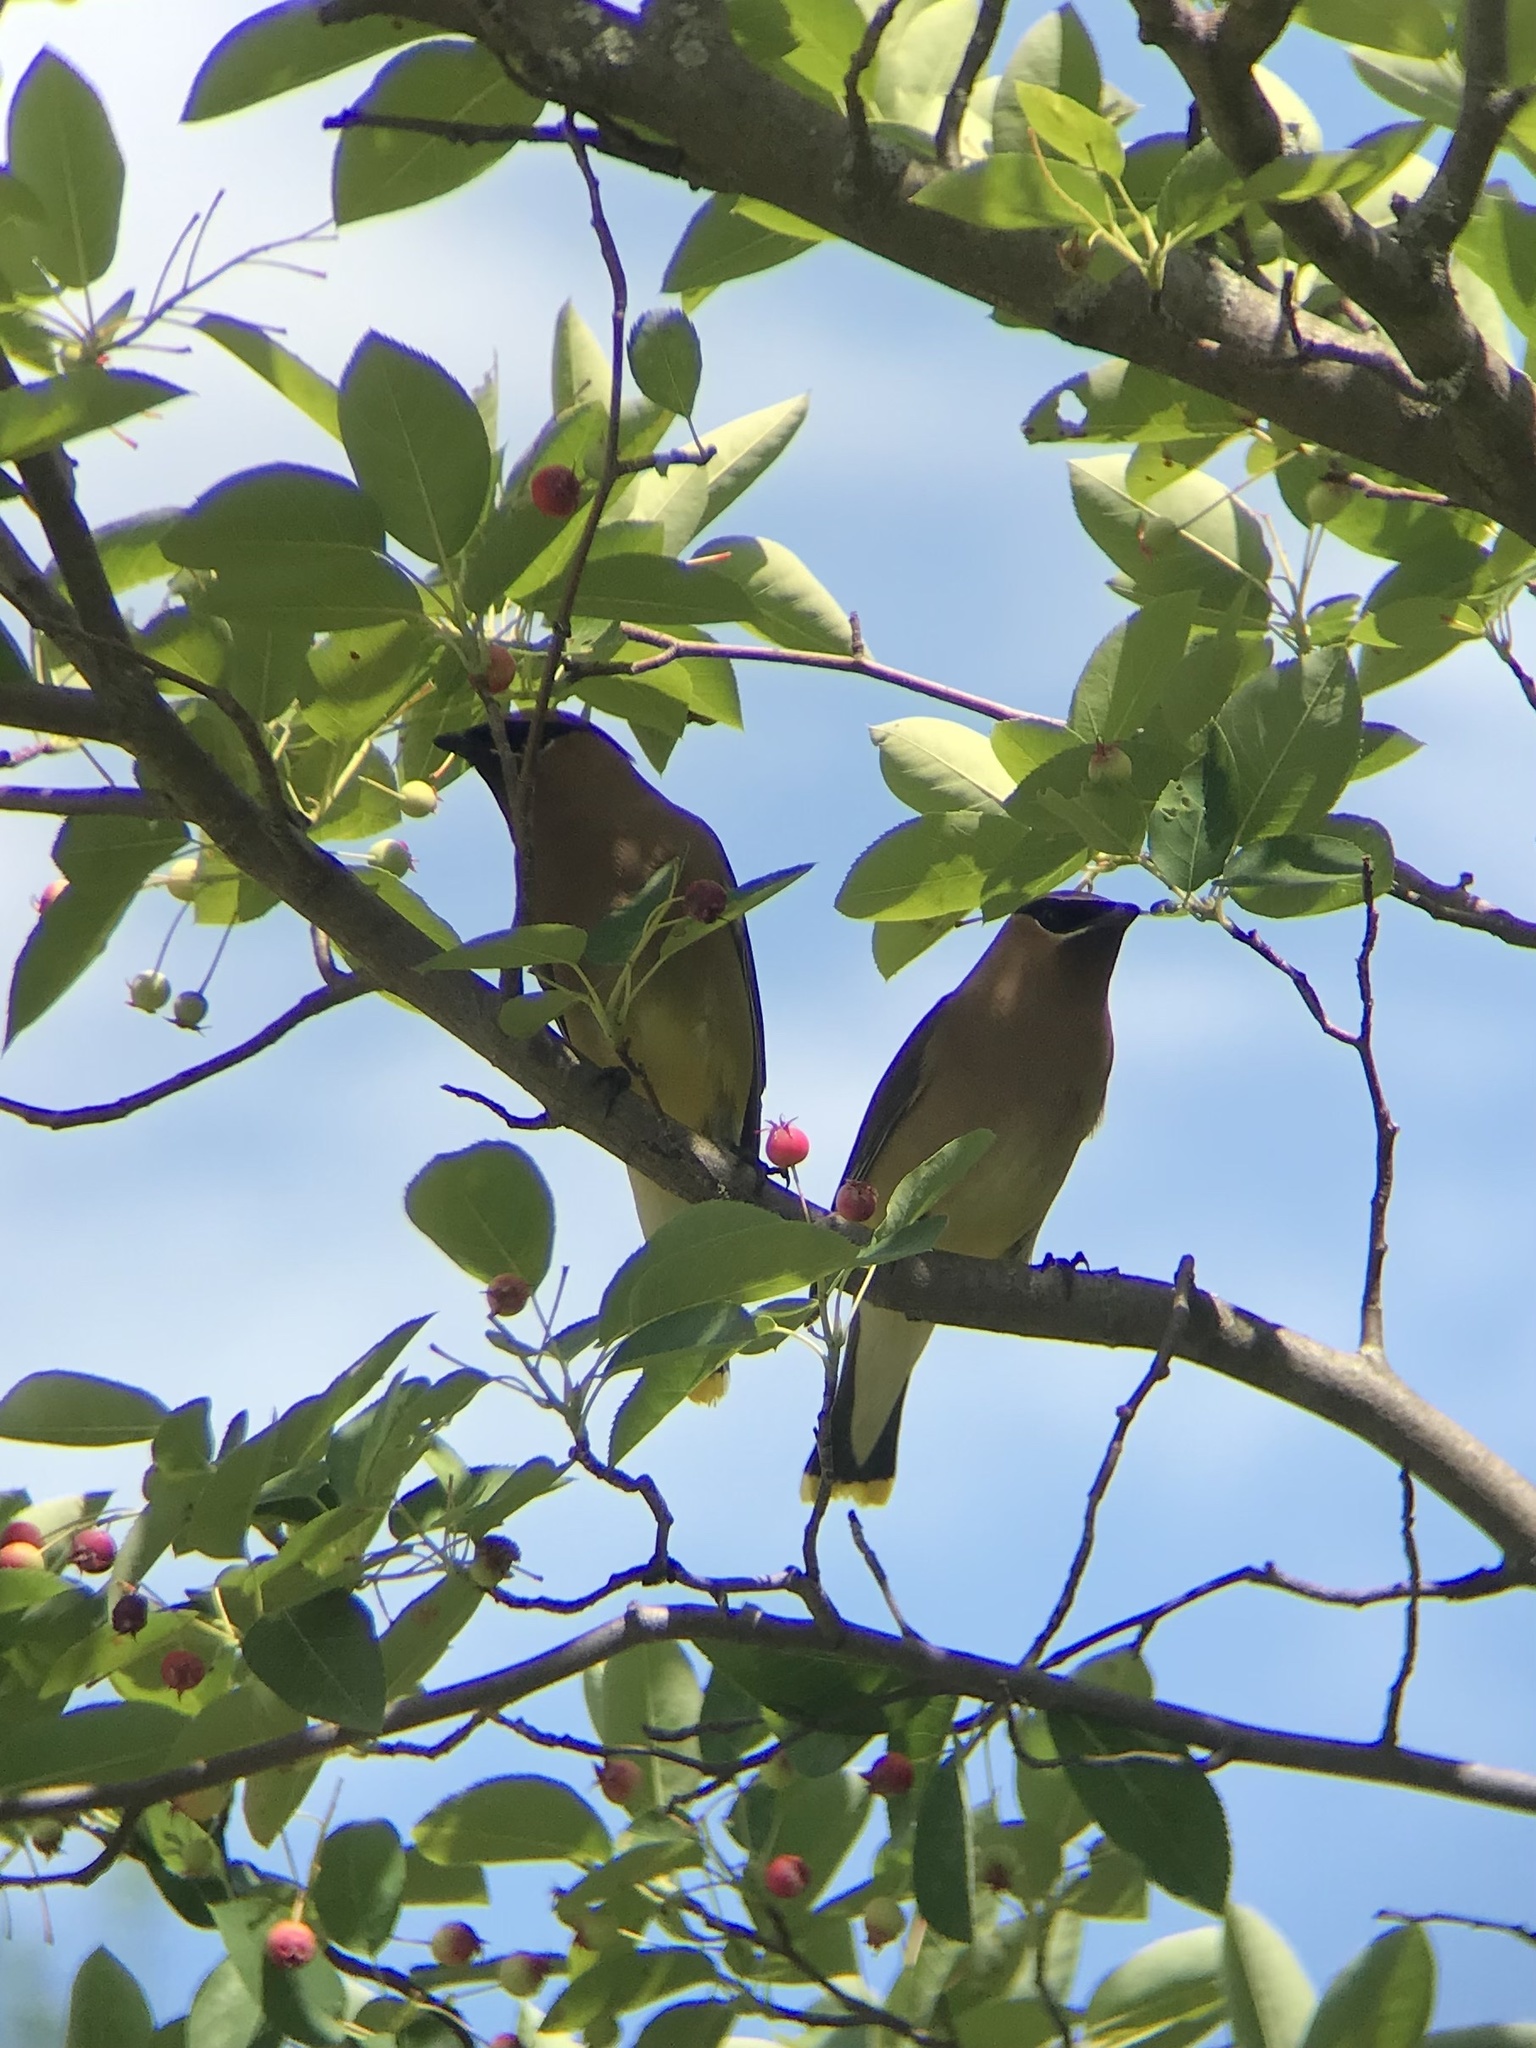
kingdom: Animalia
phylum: Chordata
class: Aves
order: Passeriformes
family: Bombycillidae
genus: Bombycilla
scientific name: Bombycilla cedrorum
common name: Cedar waxwing
